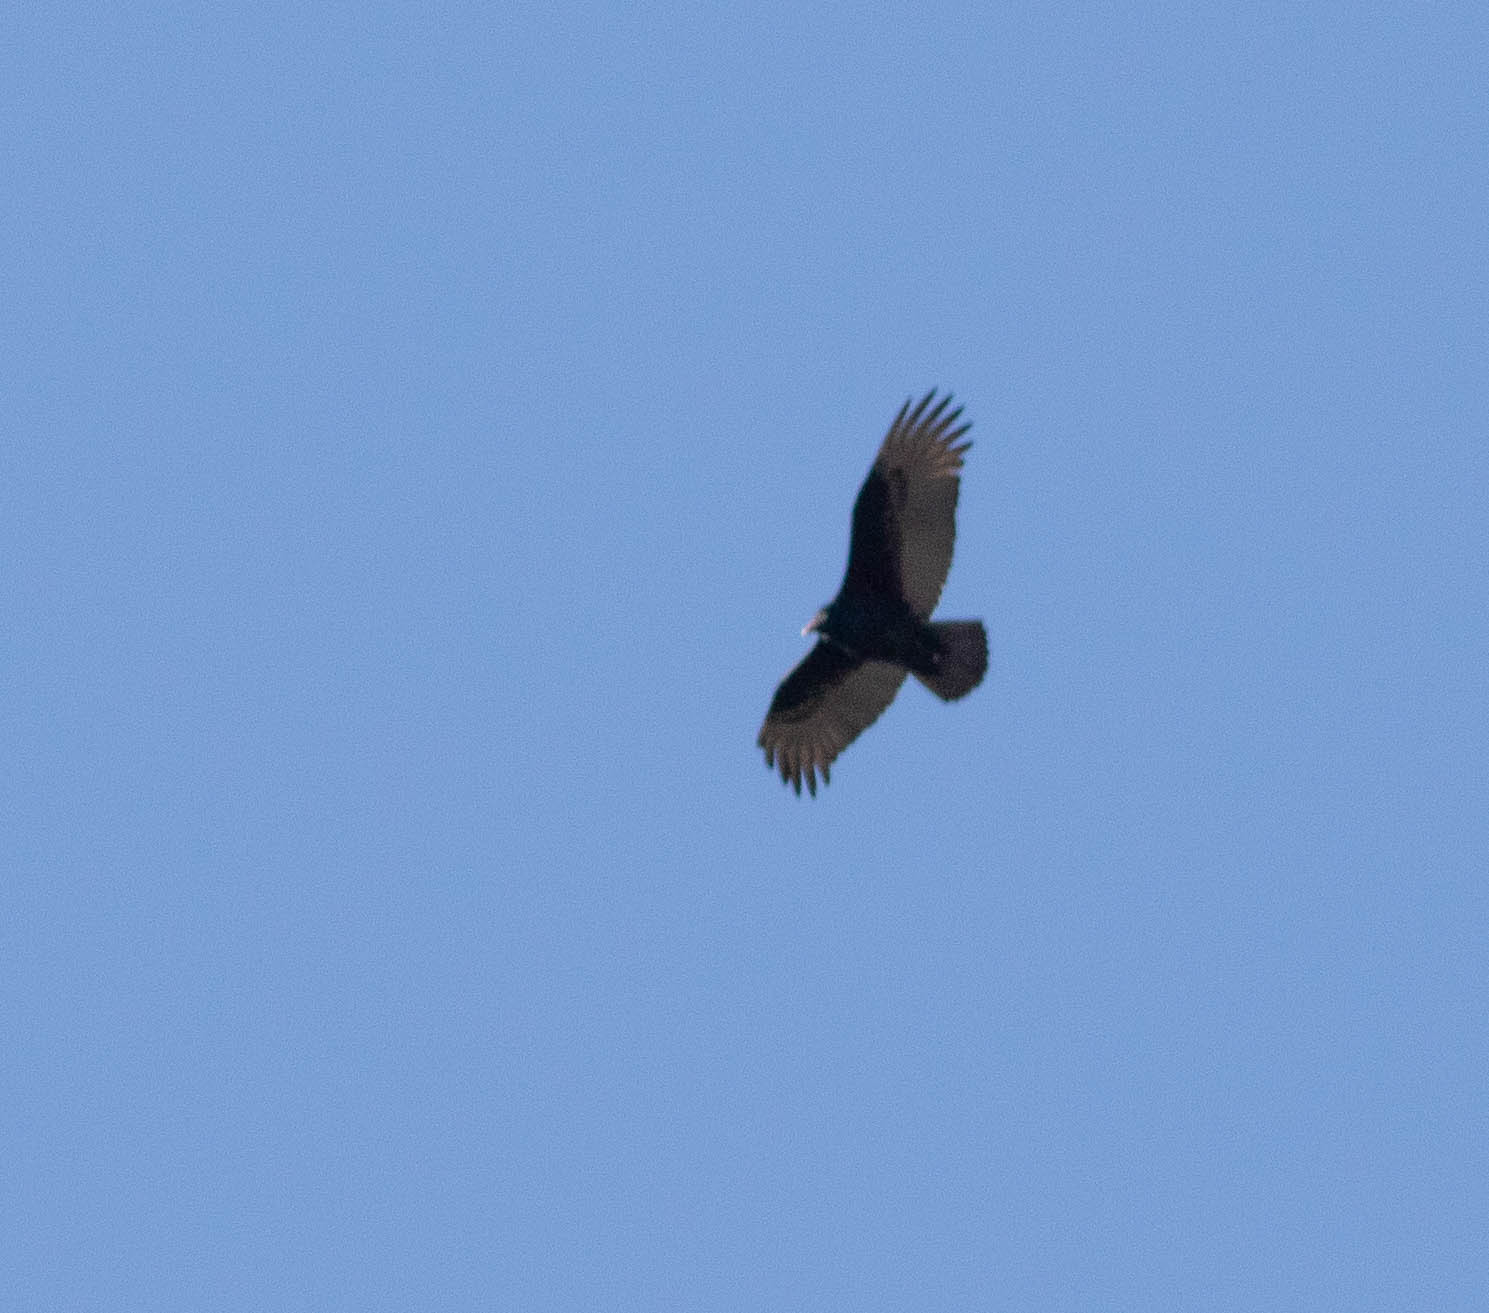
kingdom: Animalia
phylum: Chordata
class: Aves
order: Accipitriformes
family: Cathartidae
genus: Cathartes
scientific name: Cathartes aura
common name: Turkey vulture
